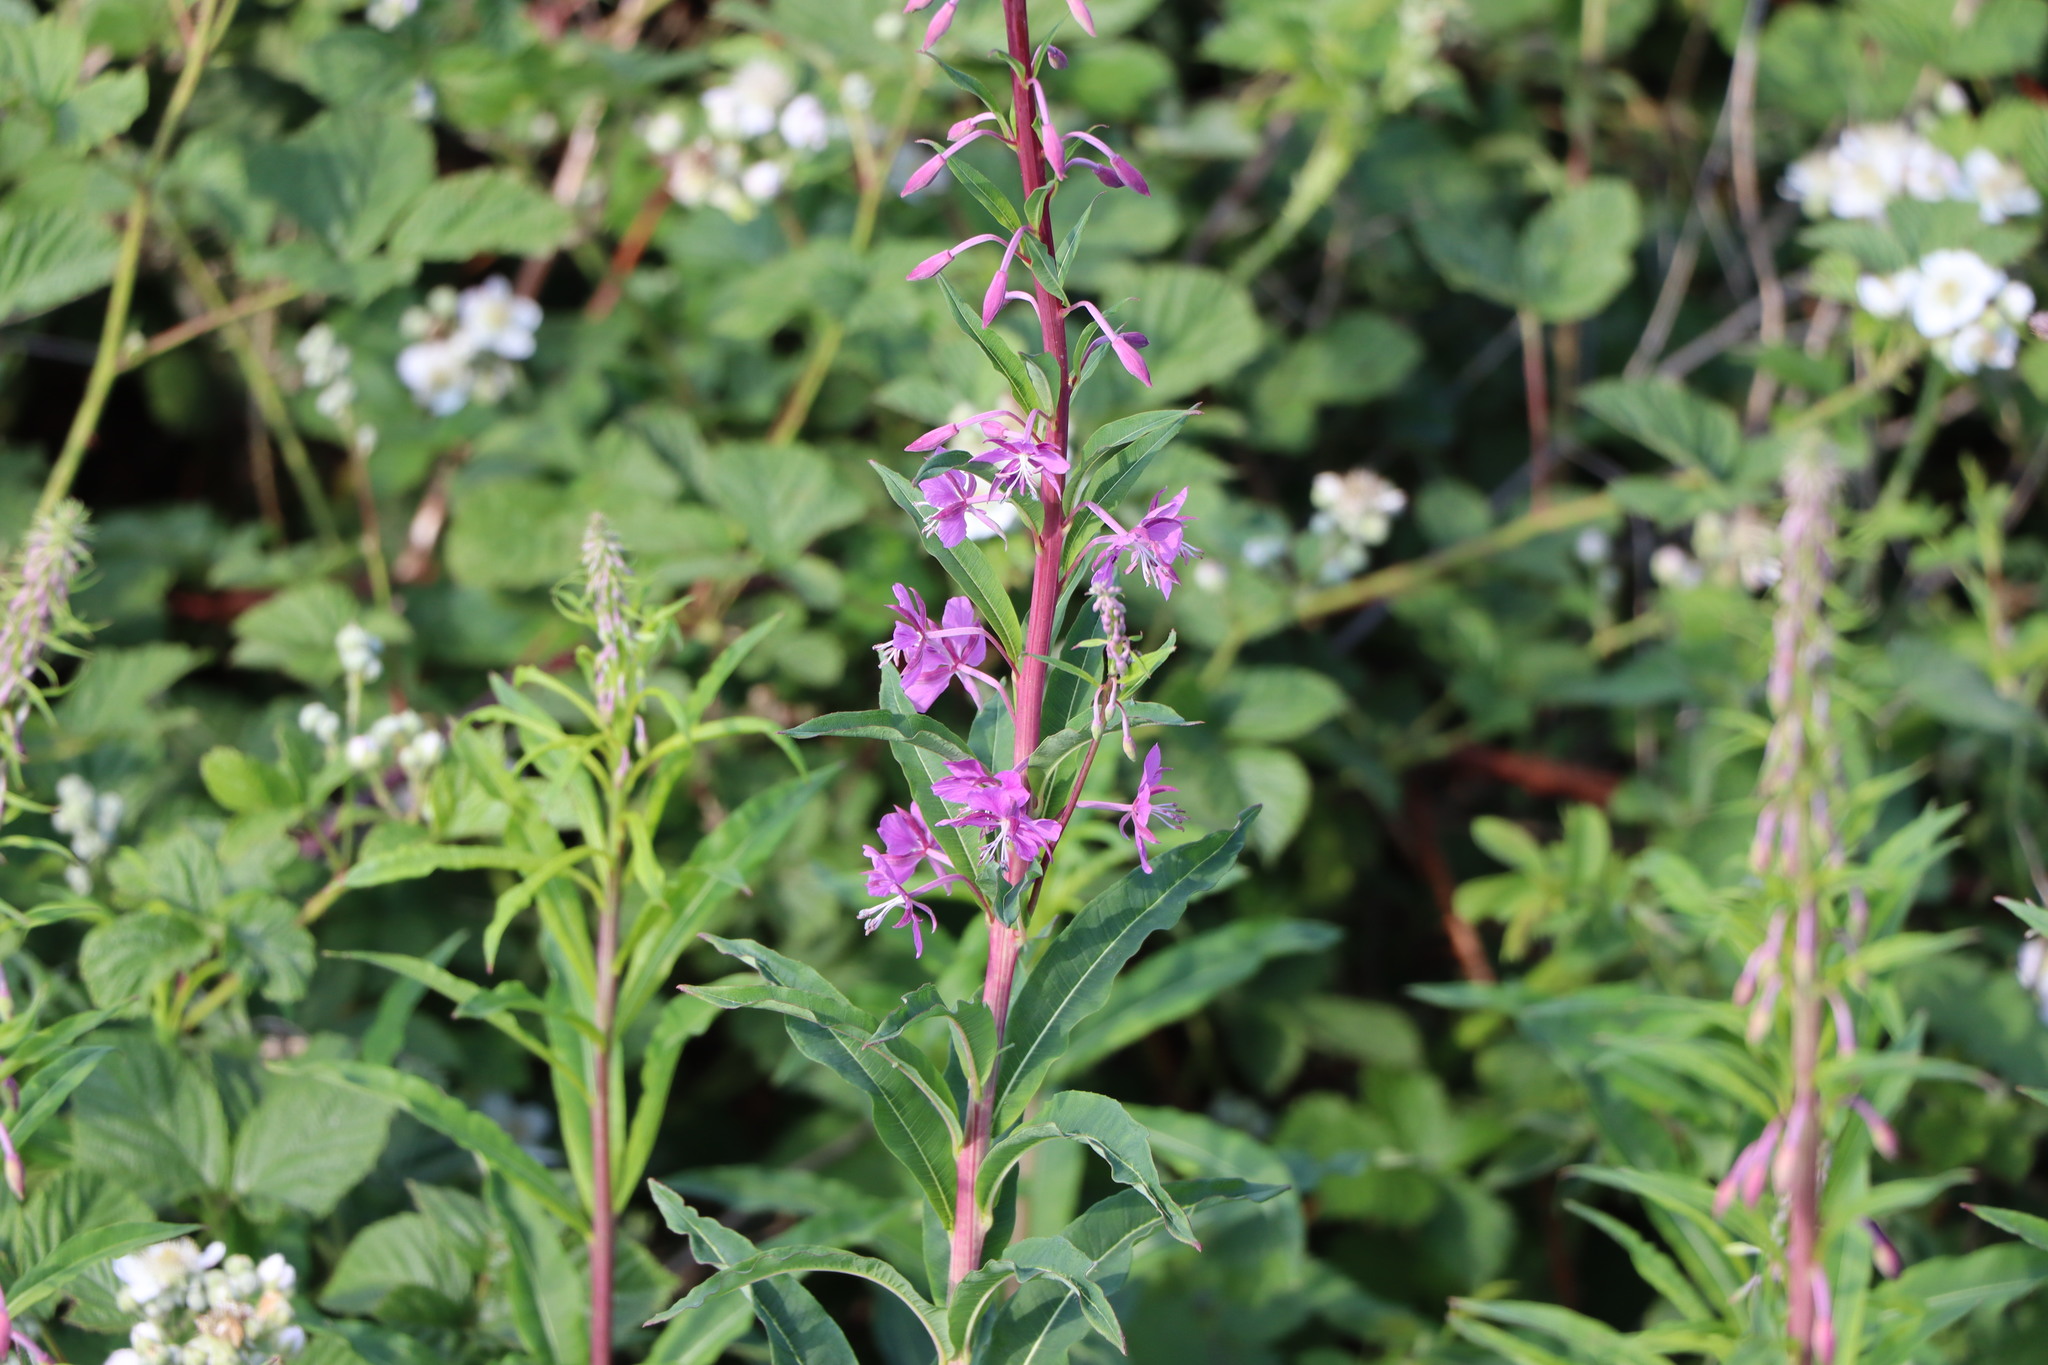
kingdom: Plantae
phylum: Tracheophyta
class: Magnoliopsida
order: Myrtales
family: Onagraceae
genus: Chamaenerion
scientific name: Chamaenerion angustifolium
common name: Fireweed
